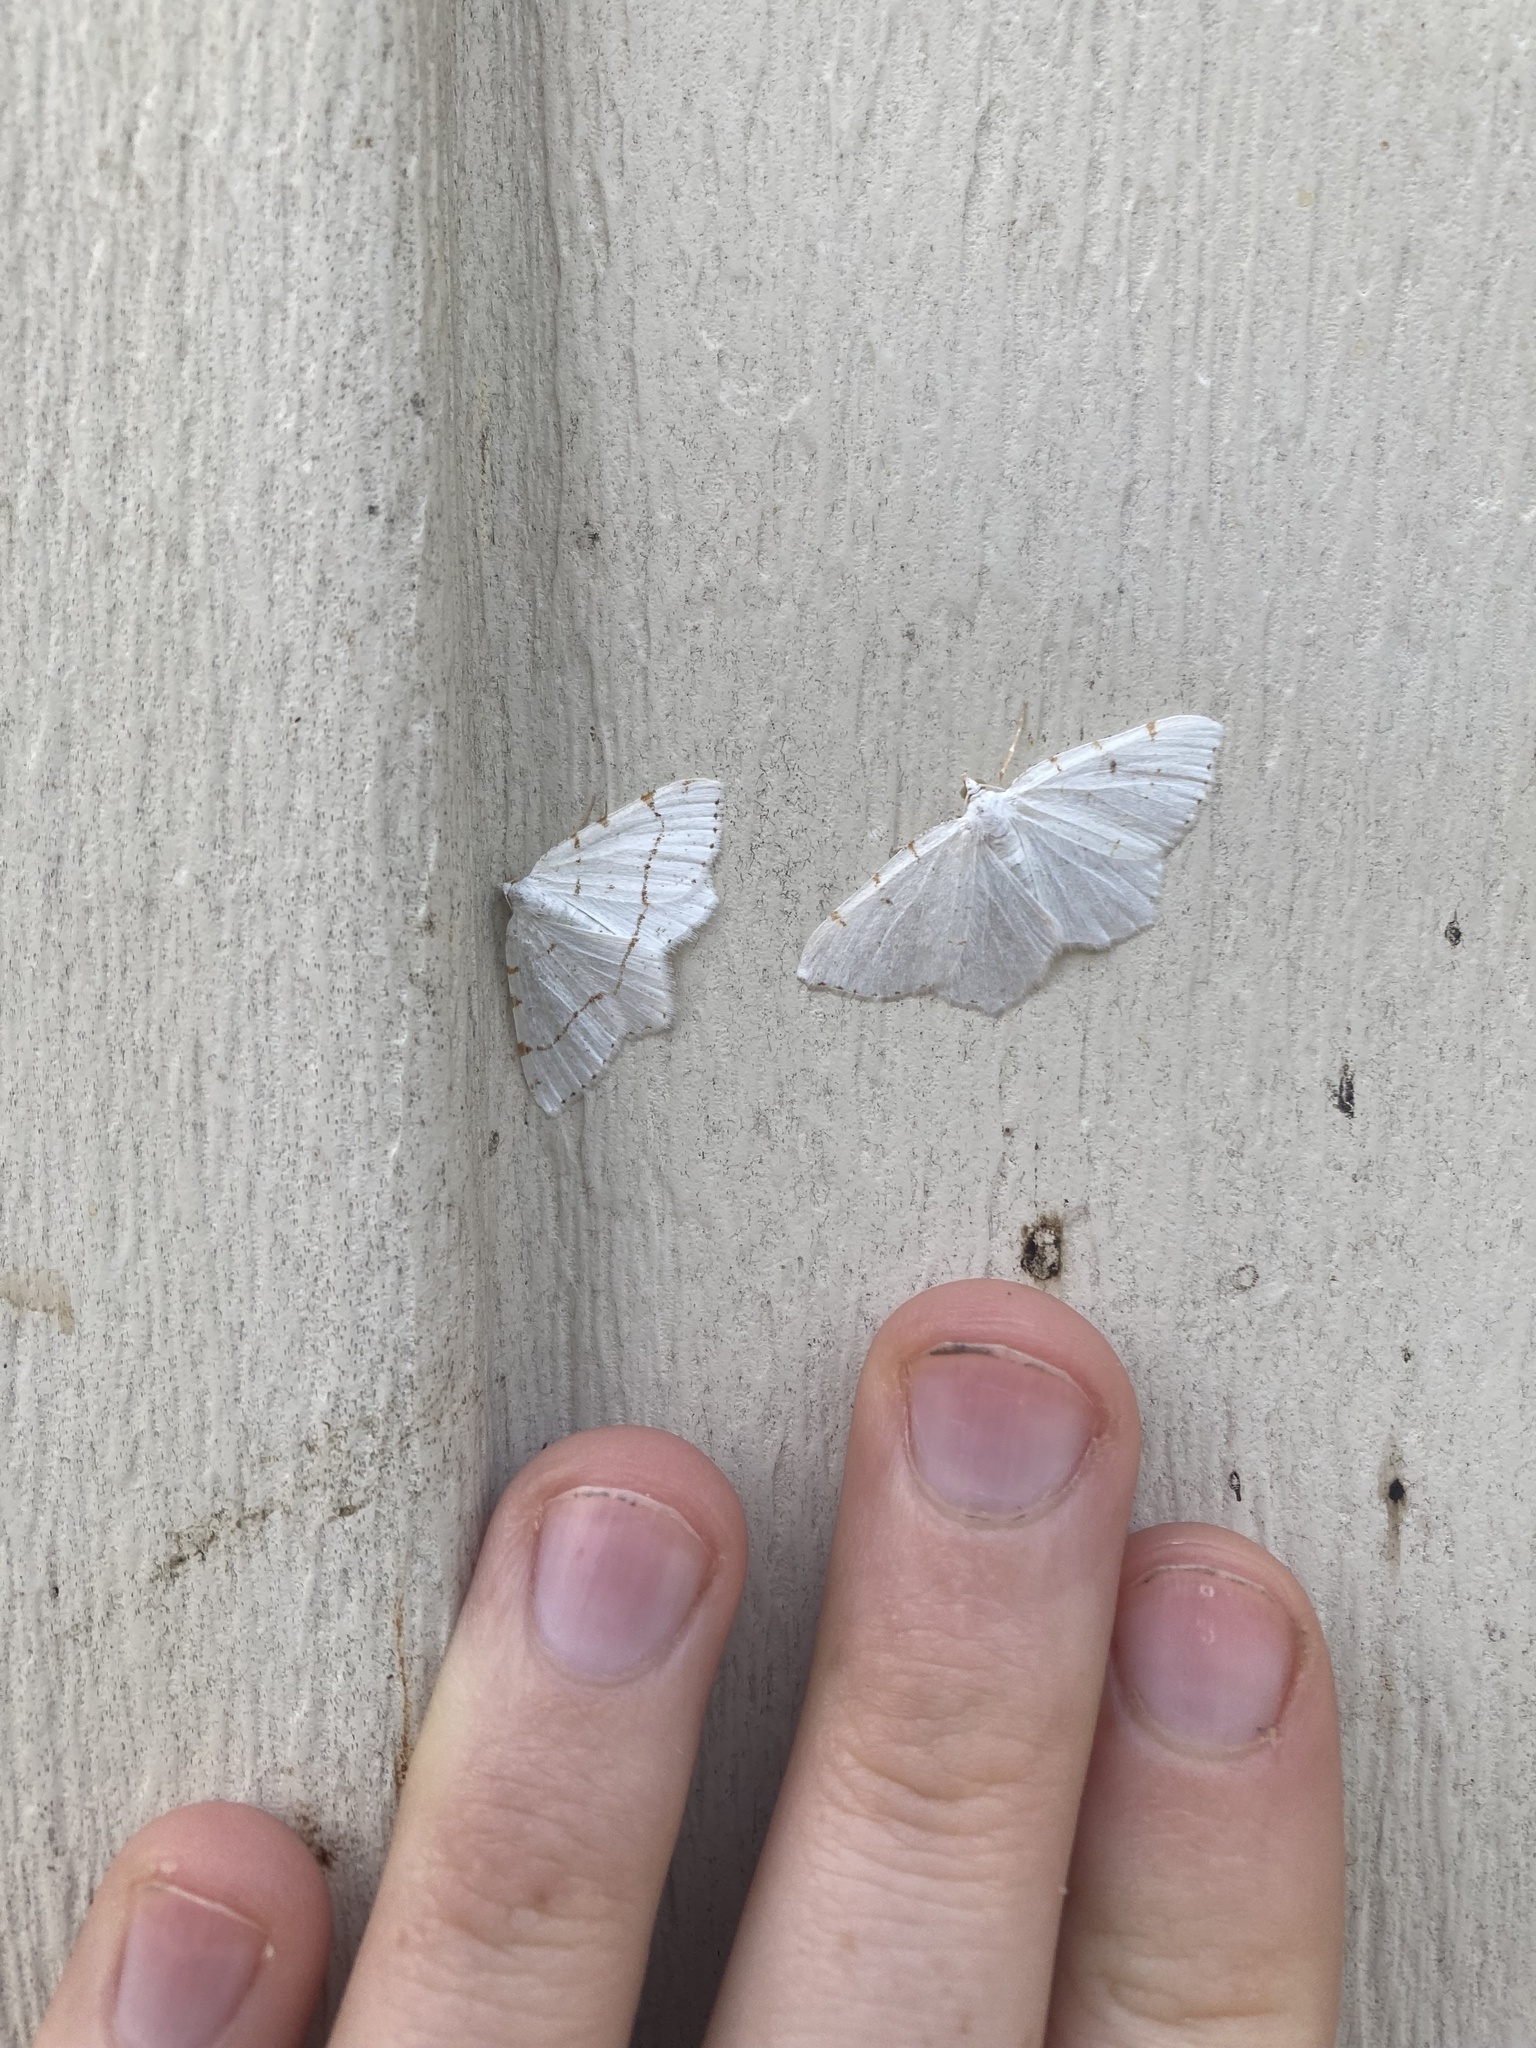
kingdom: Animalia
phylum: Arthropoda
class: Insecta
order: Lepidoptera
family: Geometridae
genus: Macaria
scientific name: Macaria pustularia
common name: Lesser maple spanworm moth
